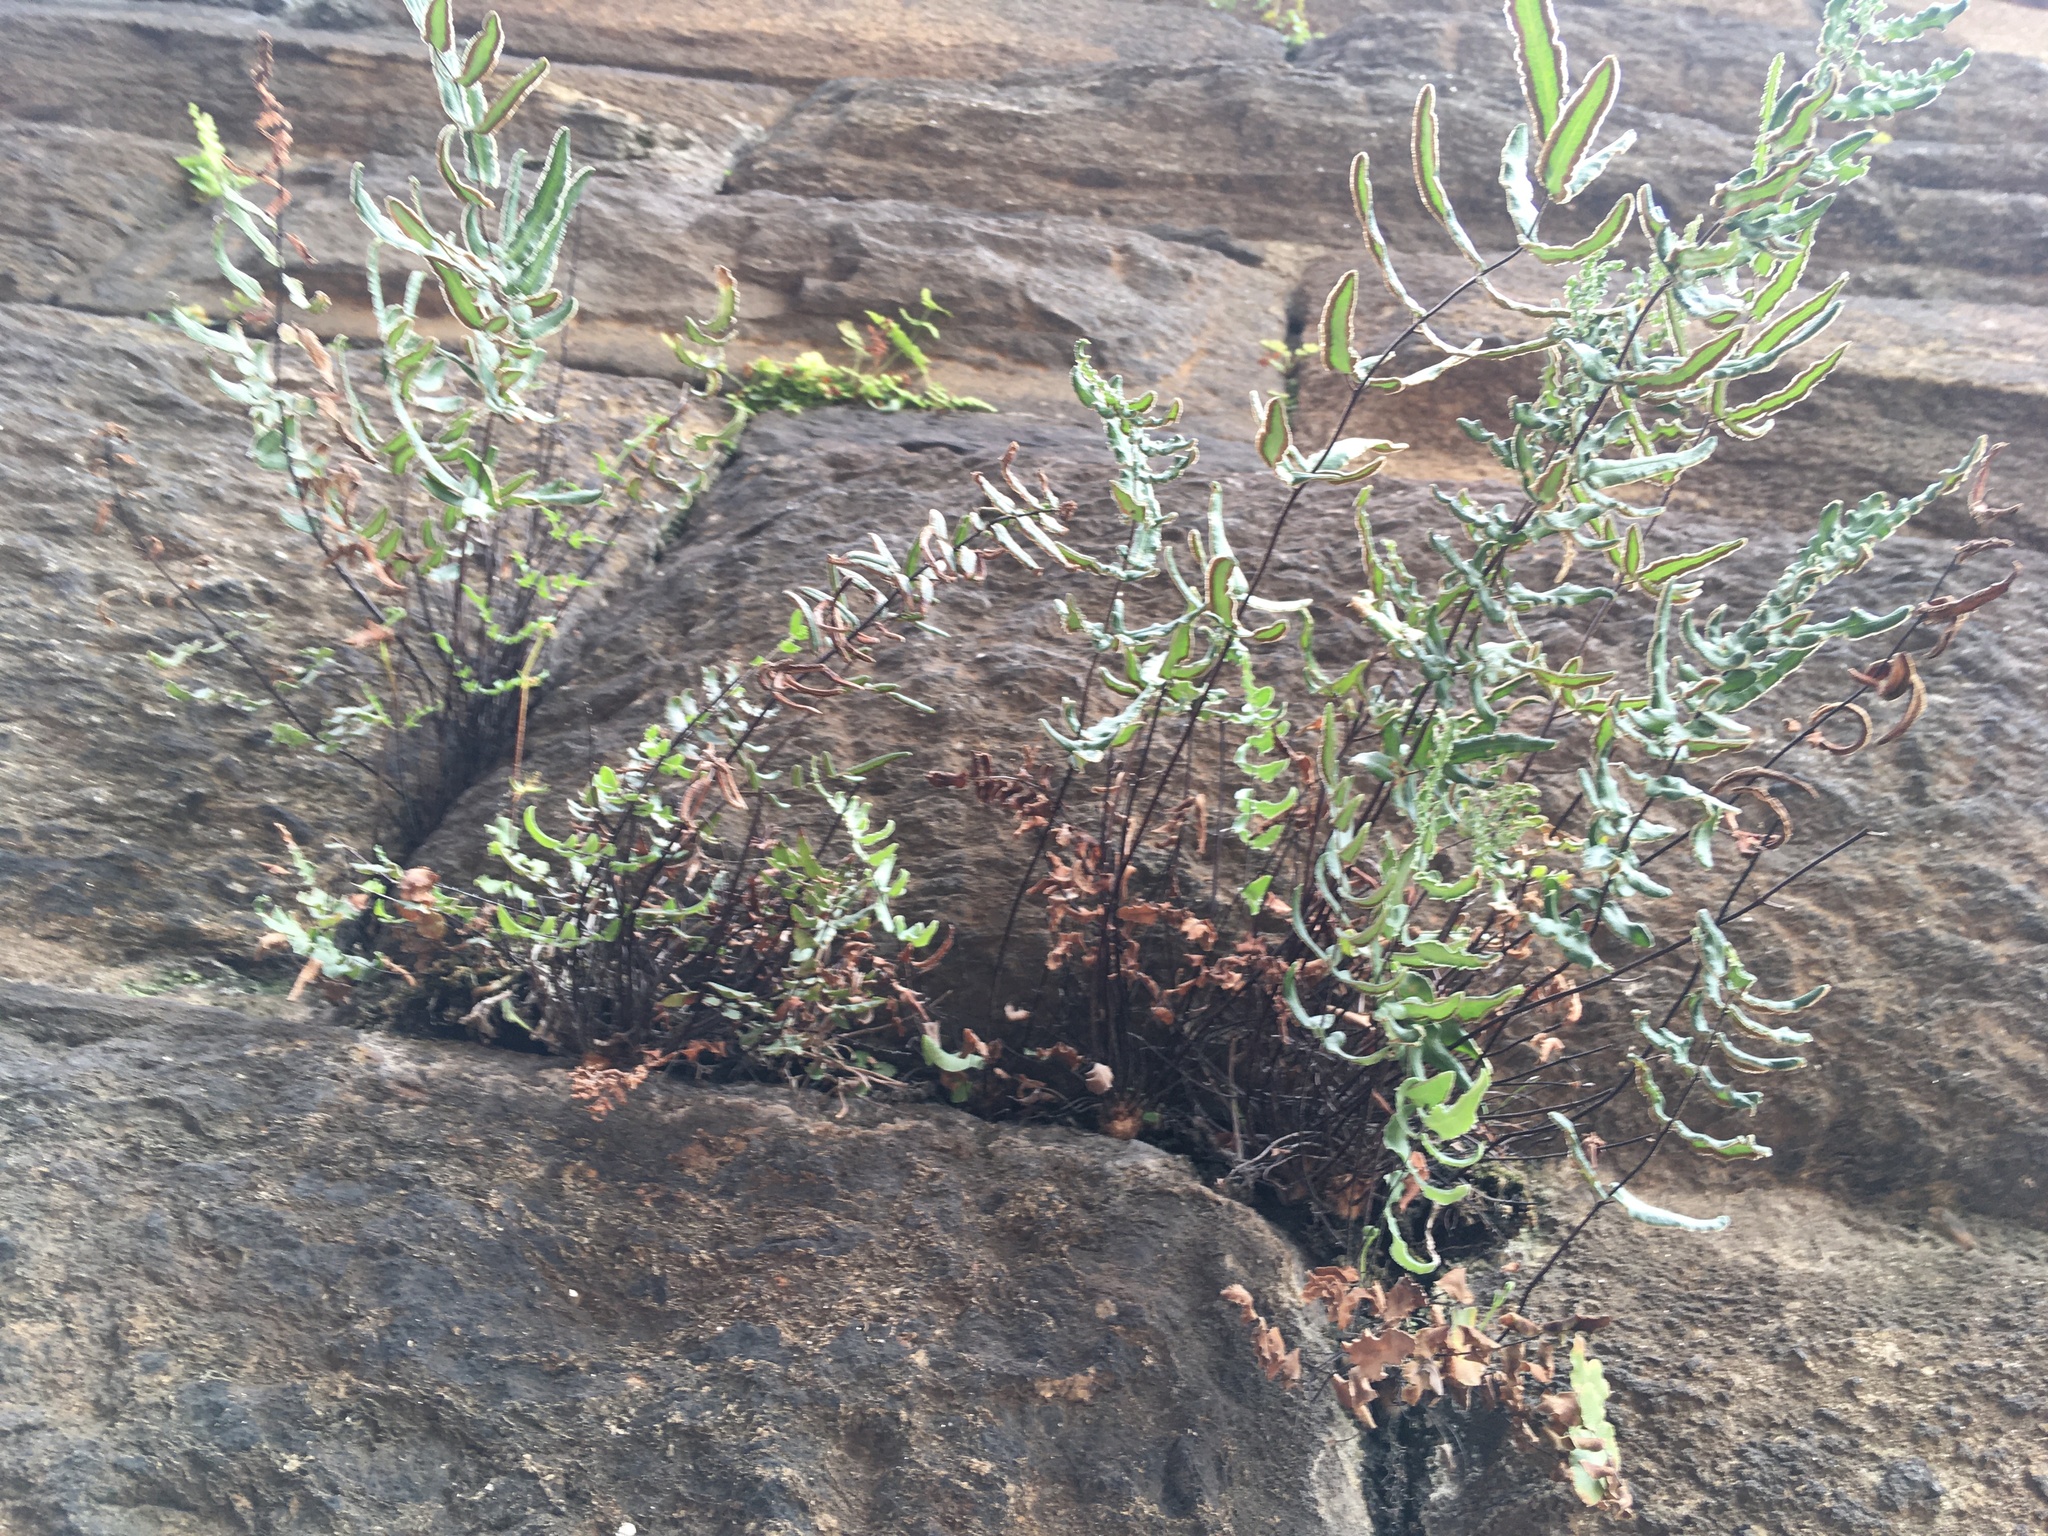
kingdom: Plantae
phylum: Tracheophyta
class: Polypodiopsida
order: Polypodiales
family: Pteridaceae
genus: Pellaea
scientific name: Pellaea atropurpurea
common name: Hairy cliffbrake
